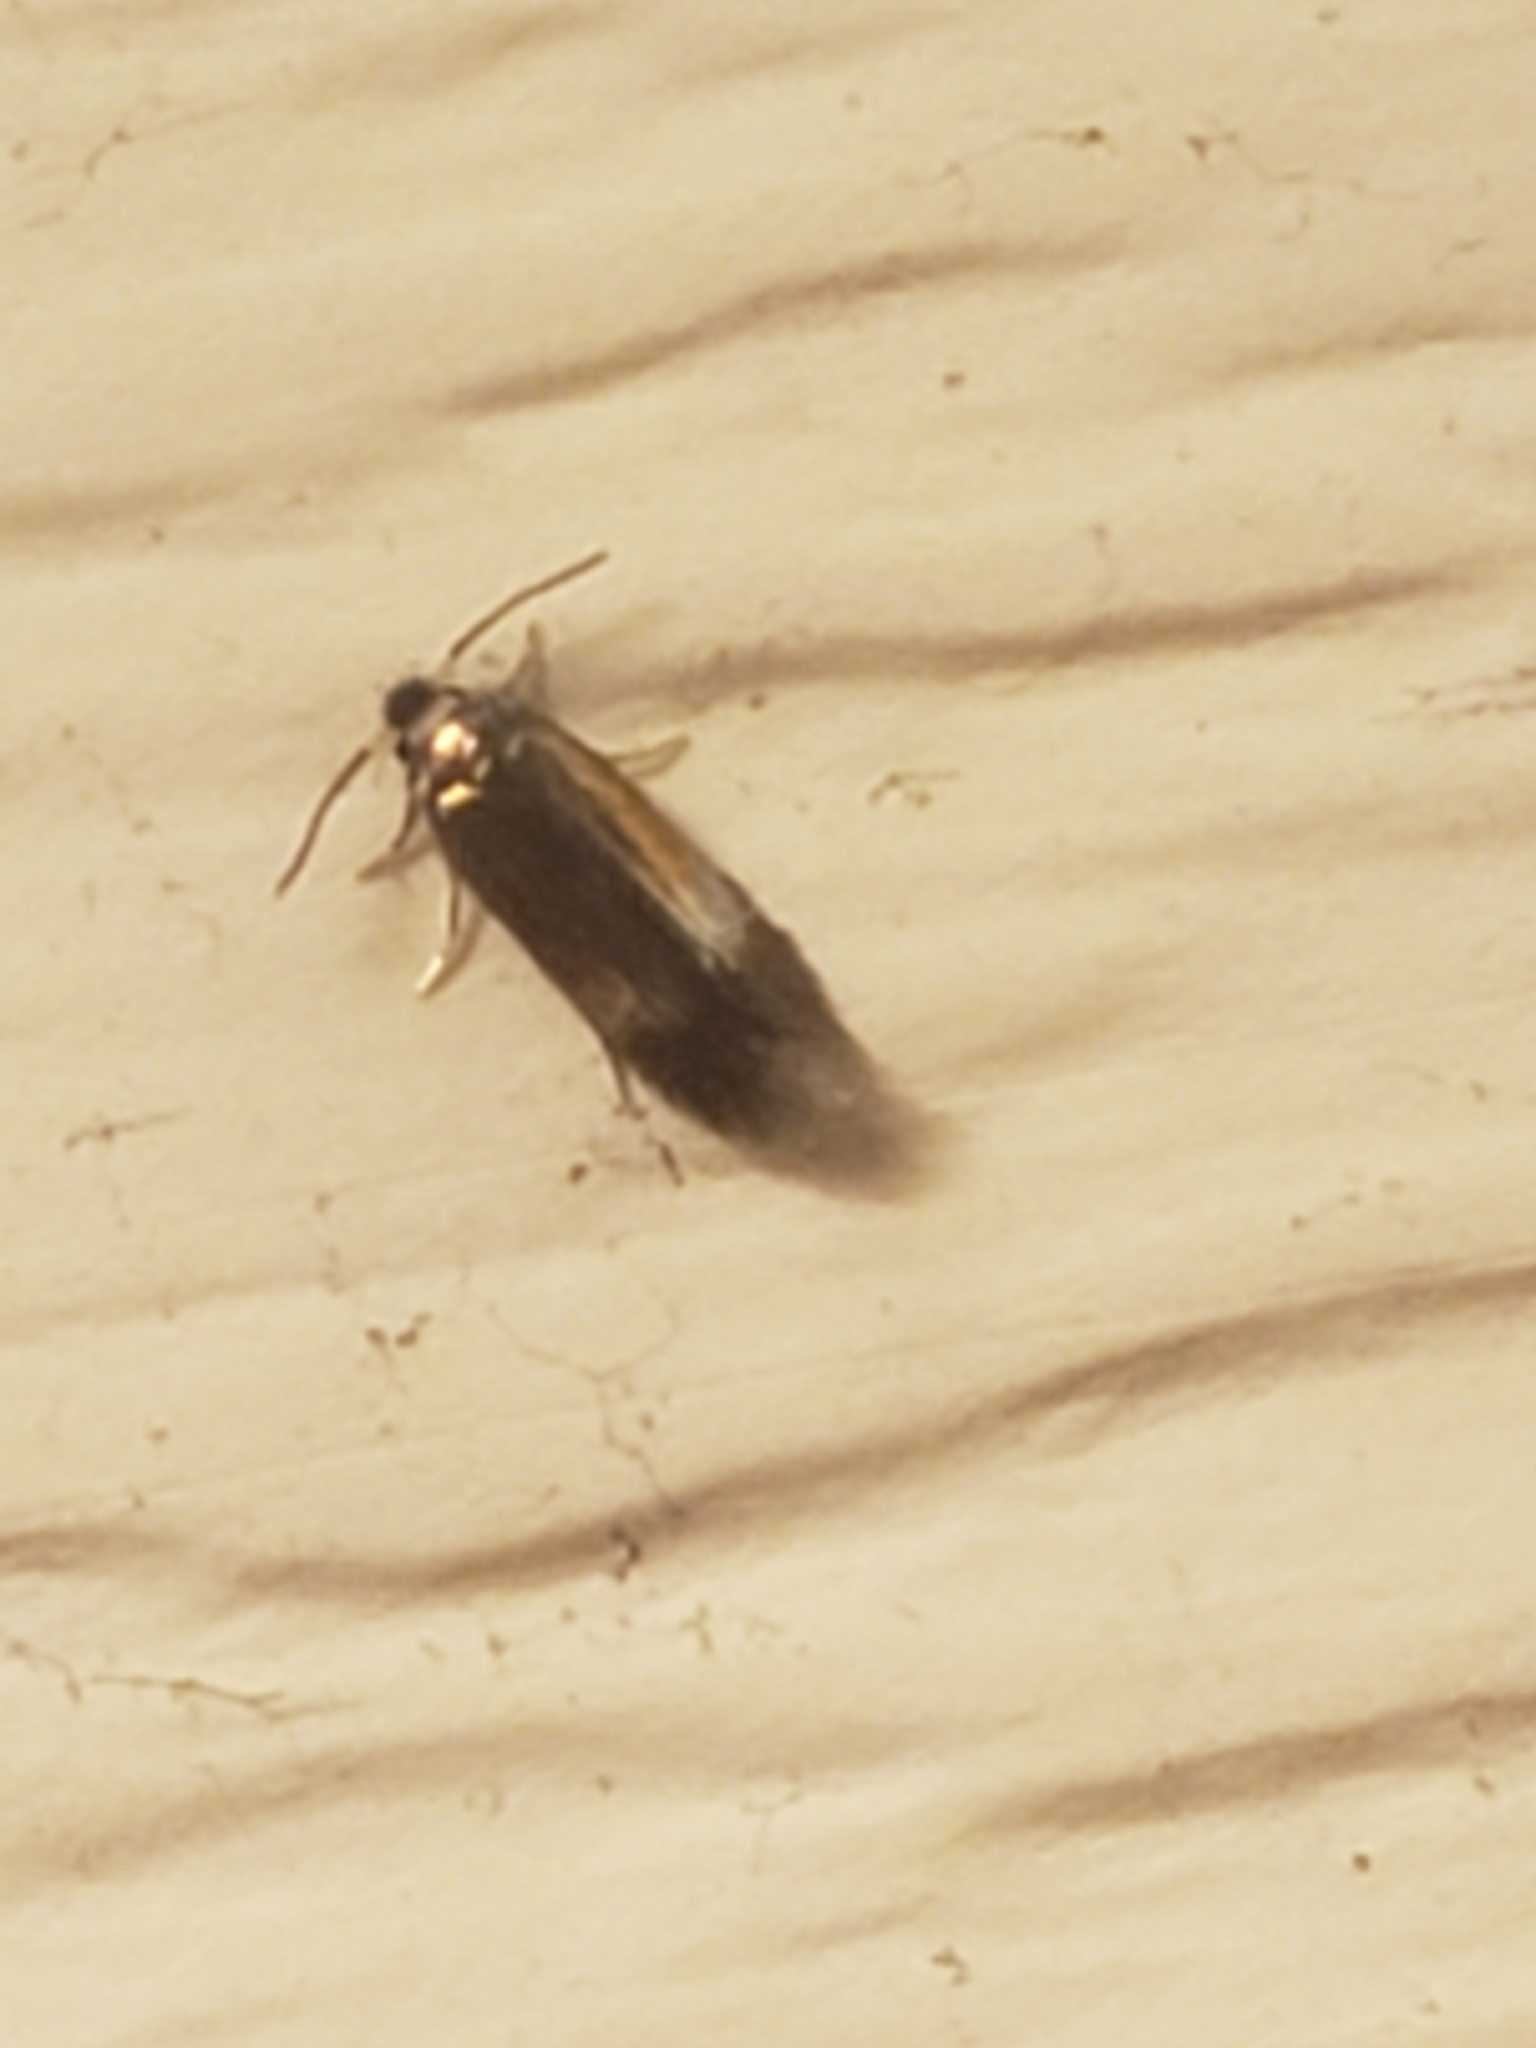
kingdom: Animalia
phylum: Arthropoda
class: Insecta
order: Lepidoptera
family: Nepticulidae
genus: Stigmella
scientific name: Stigmella multispicata
